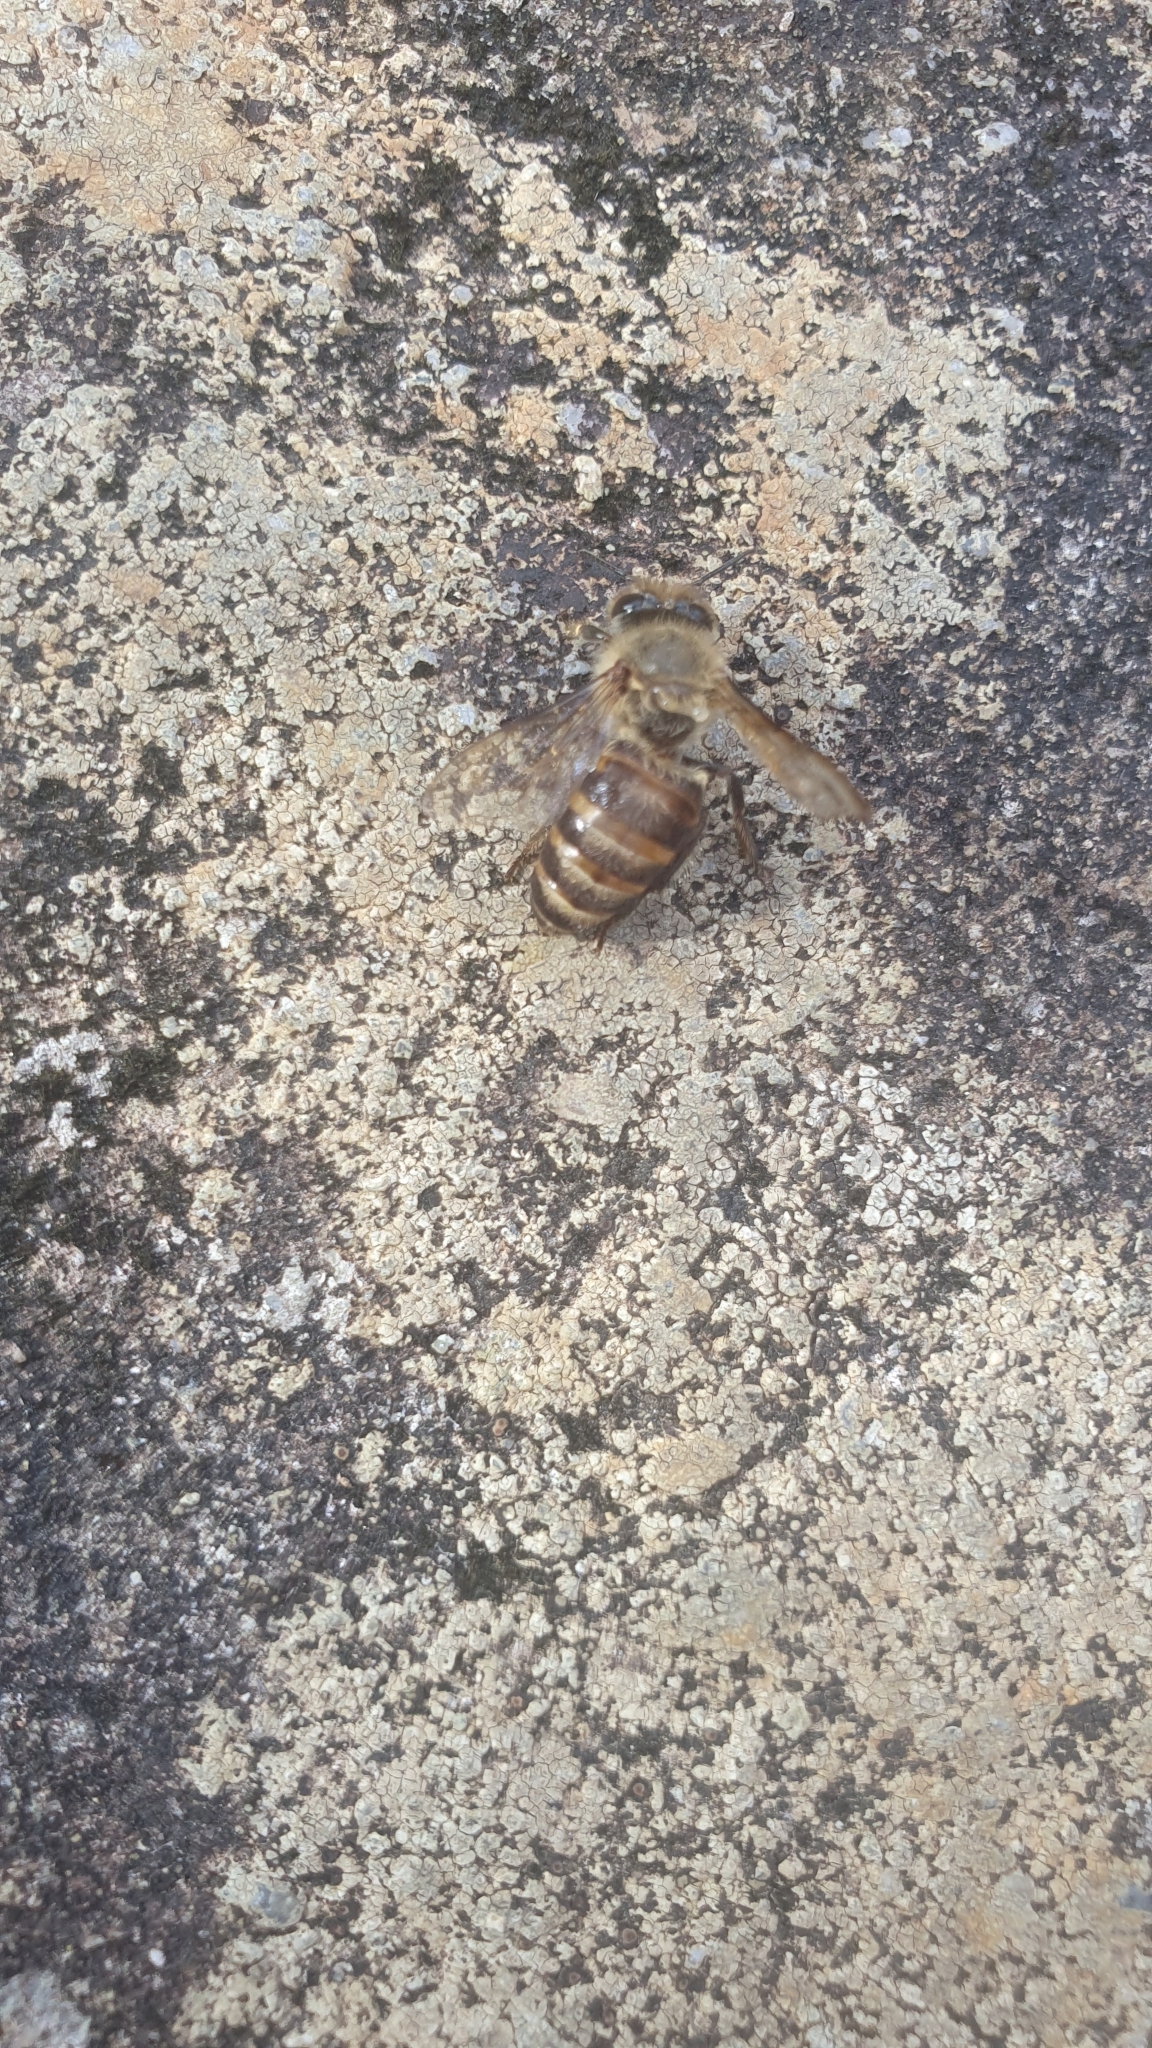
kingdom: Animalia
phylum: Arthropoda
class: Insecta
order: Hymenoptera
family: Apidae
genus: Apis
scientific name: Apis cerana
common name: Honey bee
